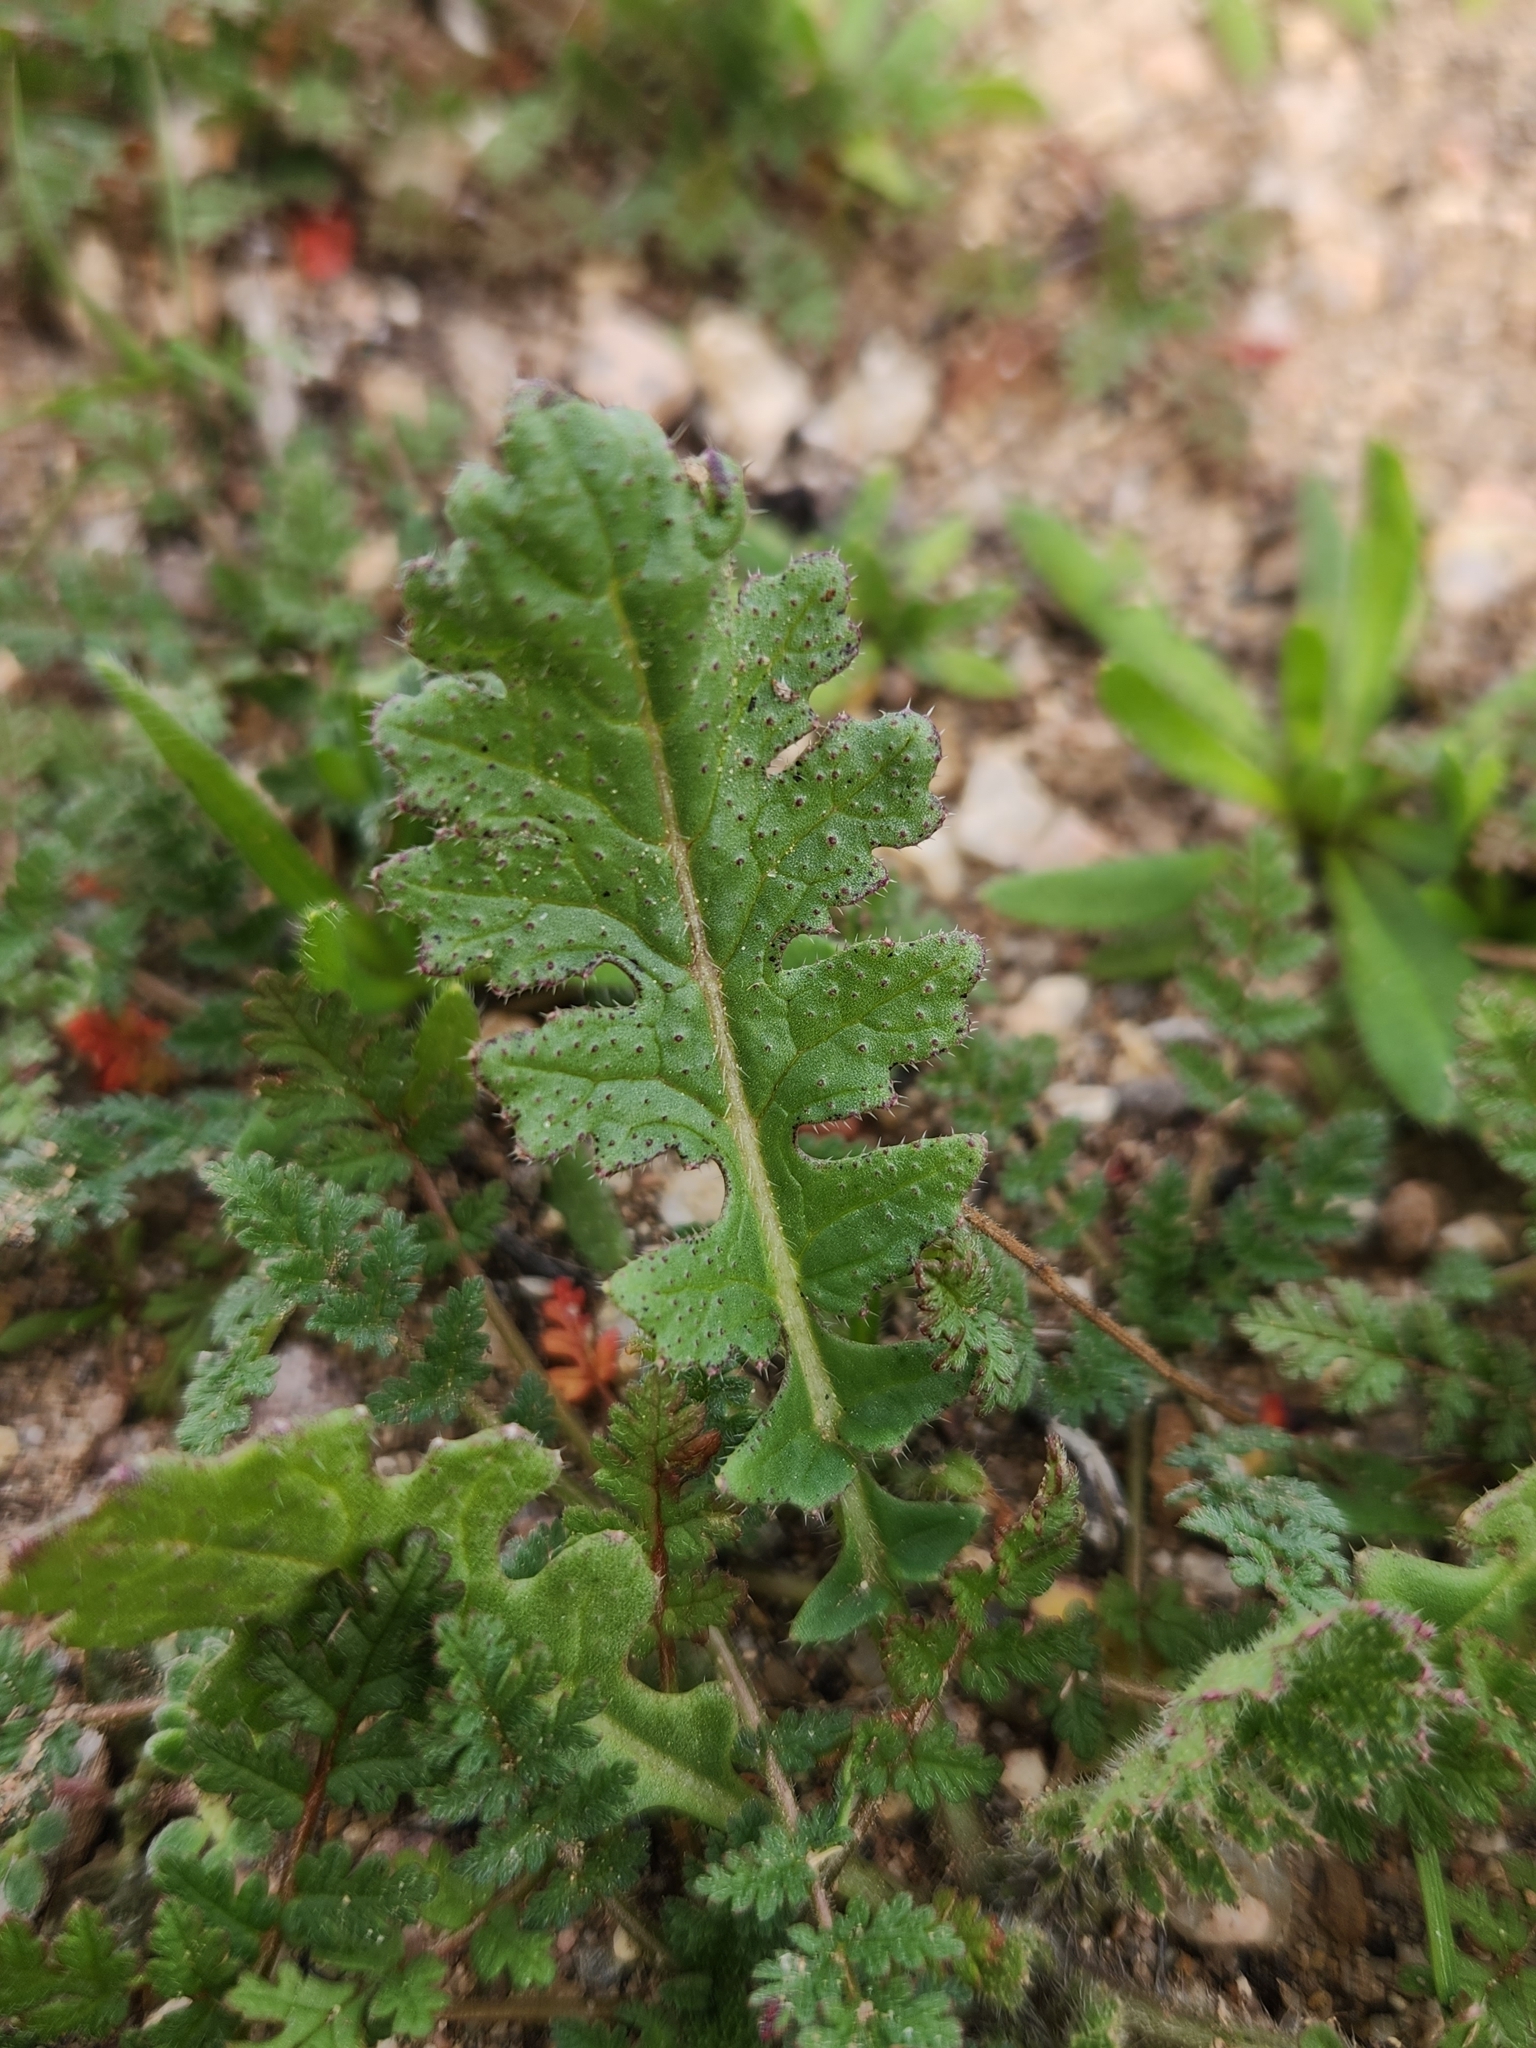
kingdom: Plantae
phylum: Tracheophyta
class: Magnoliopsida
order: Brassicales
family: Brassicaceae
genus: Brassica
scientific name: Brassica tournefortii
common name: Pale cabbage
